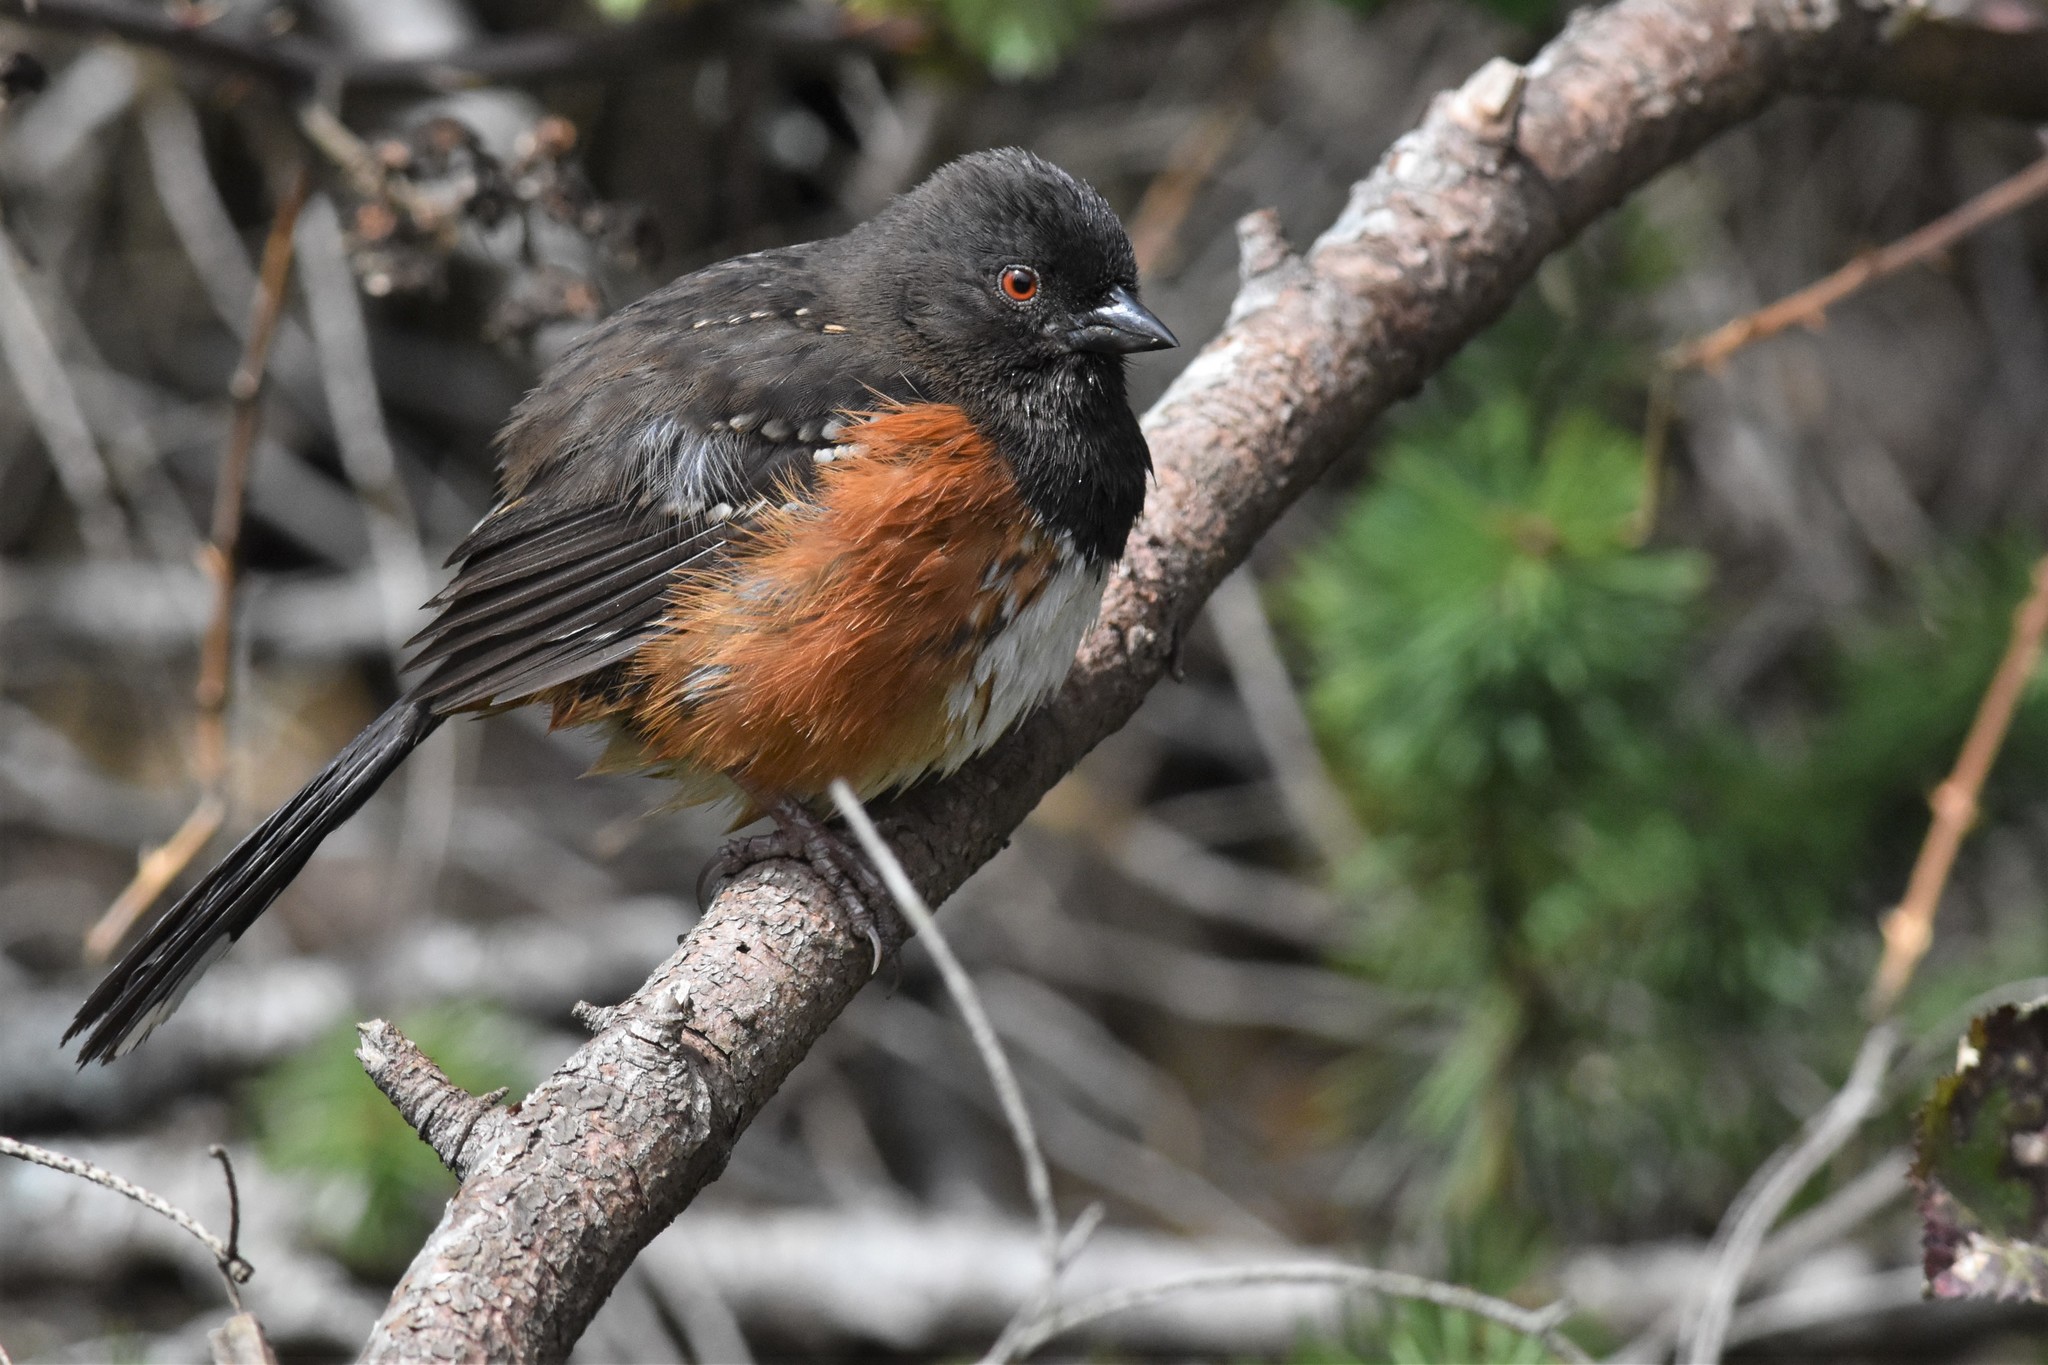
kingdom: Animalia
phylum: Chordata
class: Aves
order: Passeriformes
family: Passerellidae
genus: Pipilo
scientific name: Pipilo maculatus
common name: Spotted towhee
